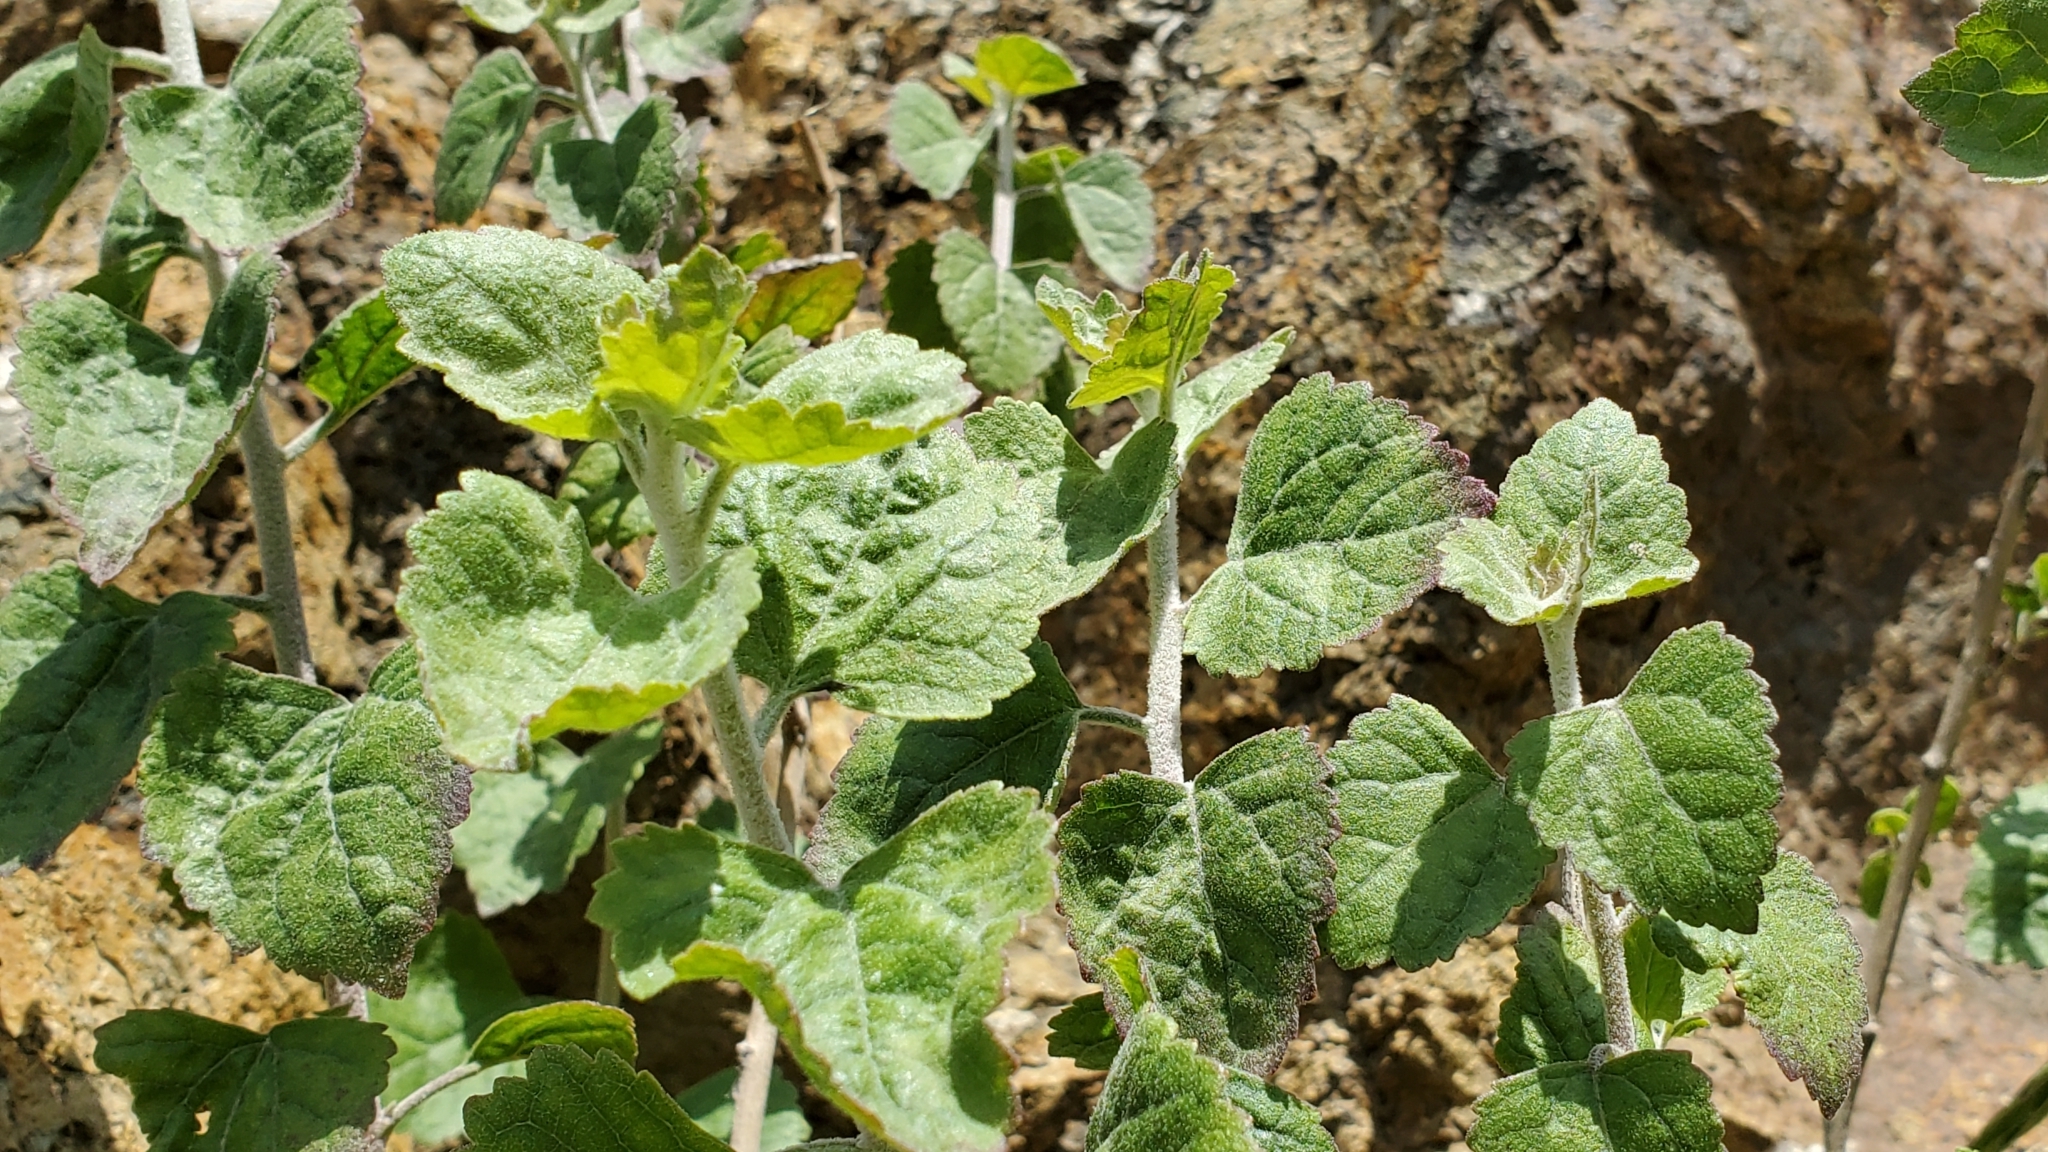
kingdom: Plantae
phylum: Tracheophyta
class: Magnoliopsida
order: Asterales
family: Asteraceae
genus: Brickellia
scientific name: Brickellia californica
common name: California brickellbush
